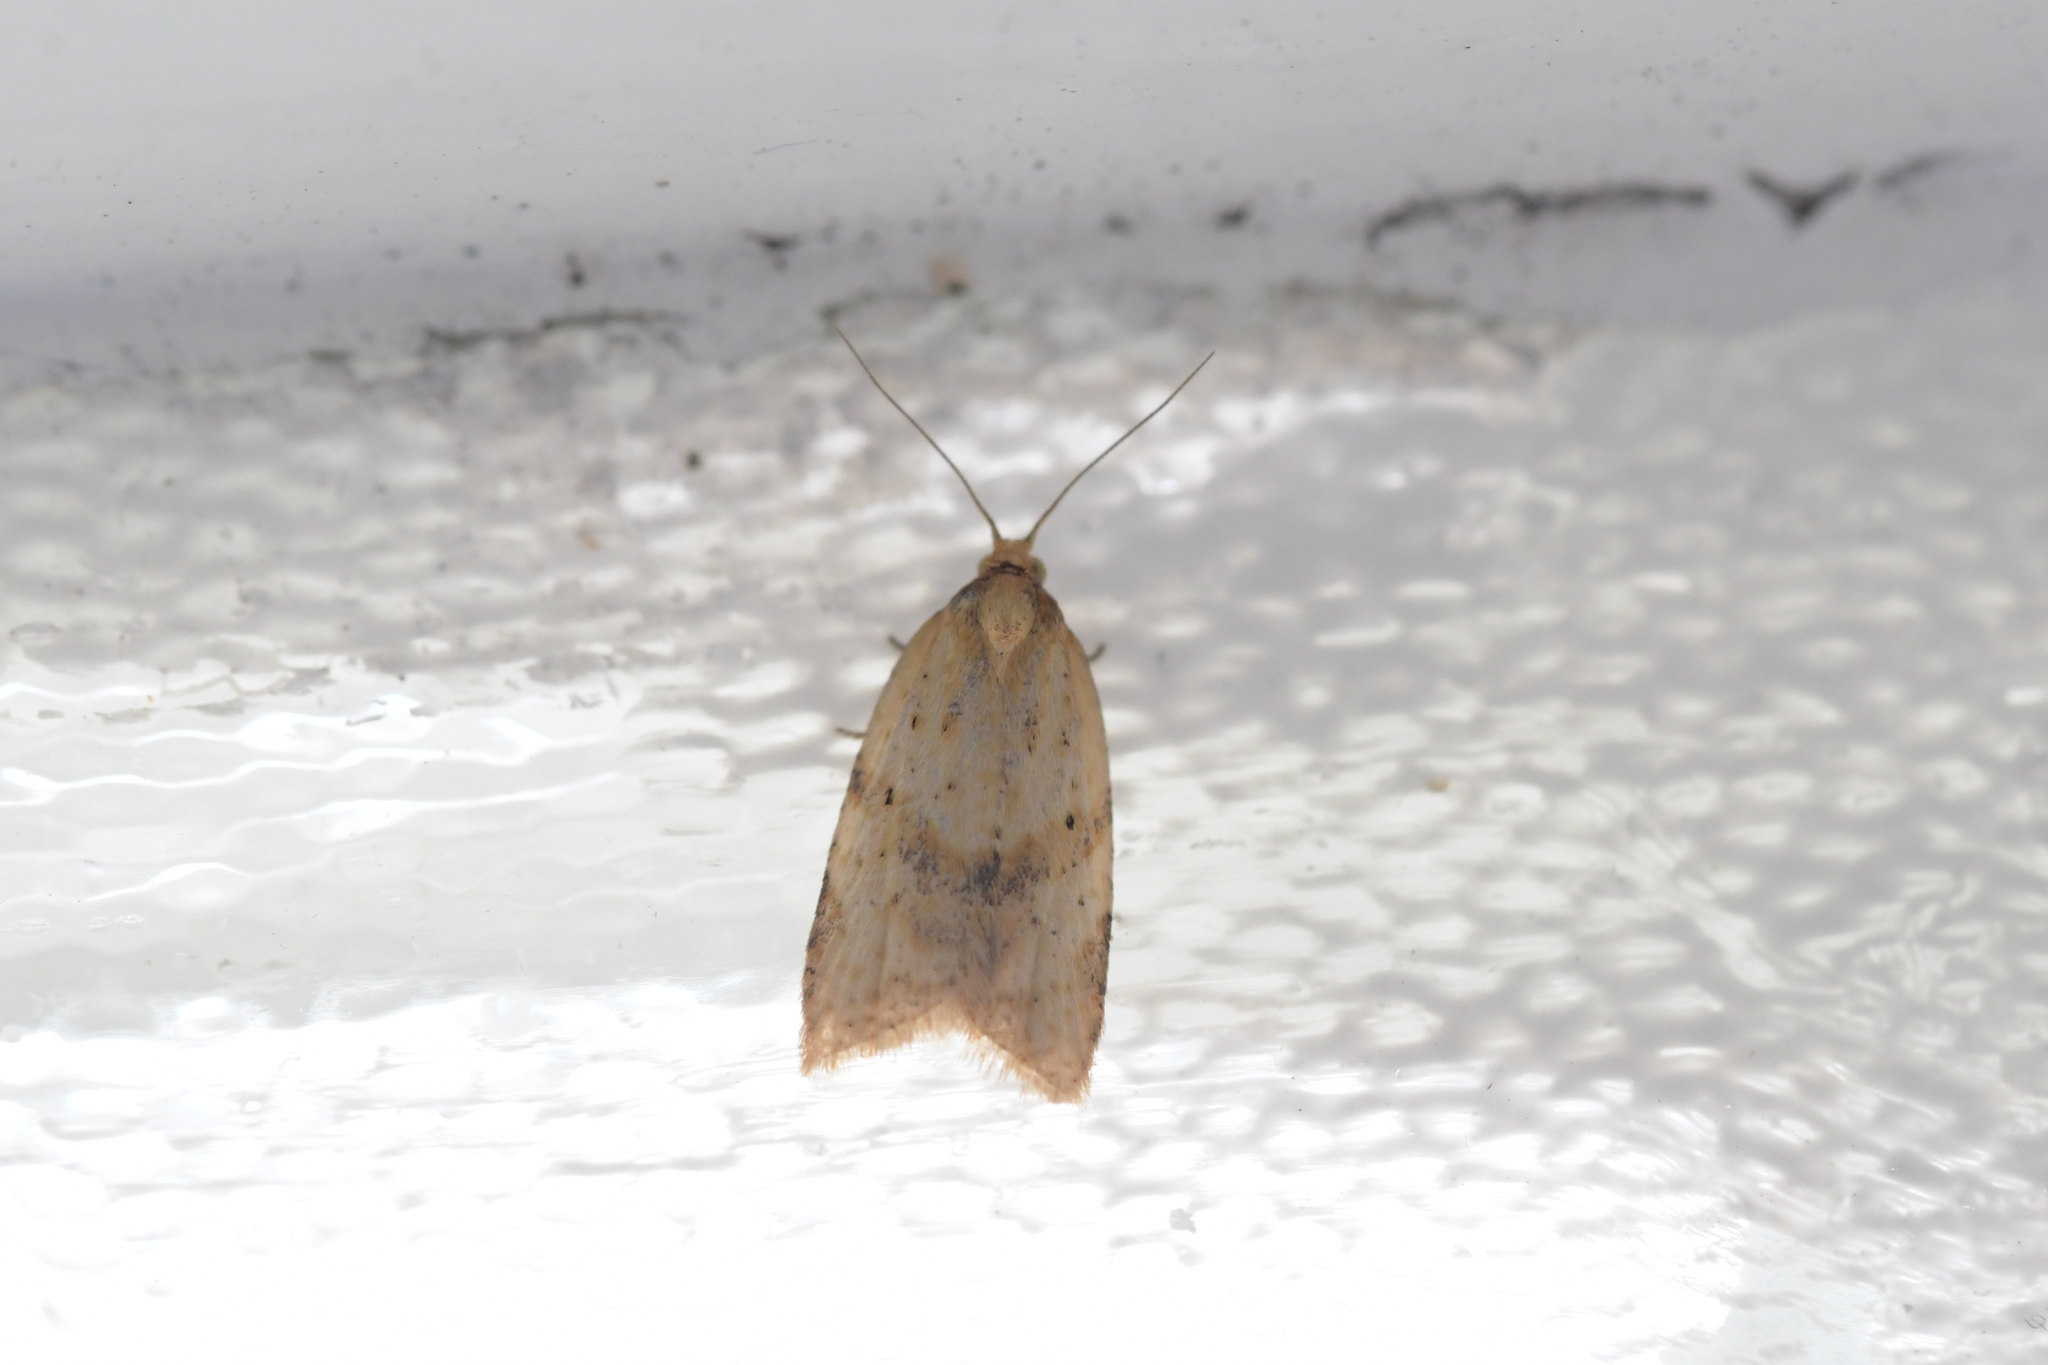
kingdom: Animalia
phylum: Arthropoda
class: Insecta
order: Lepidoptera
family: Tortricidae
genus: Clepsis
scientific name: Clepsis
